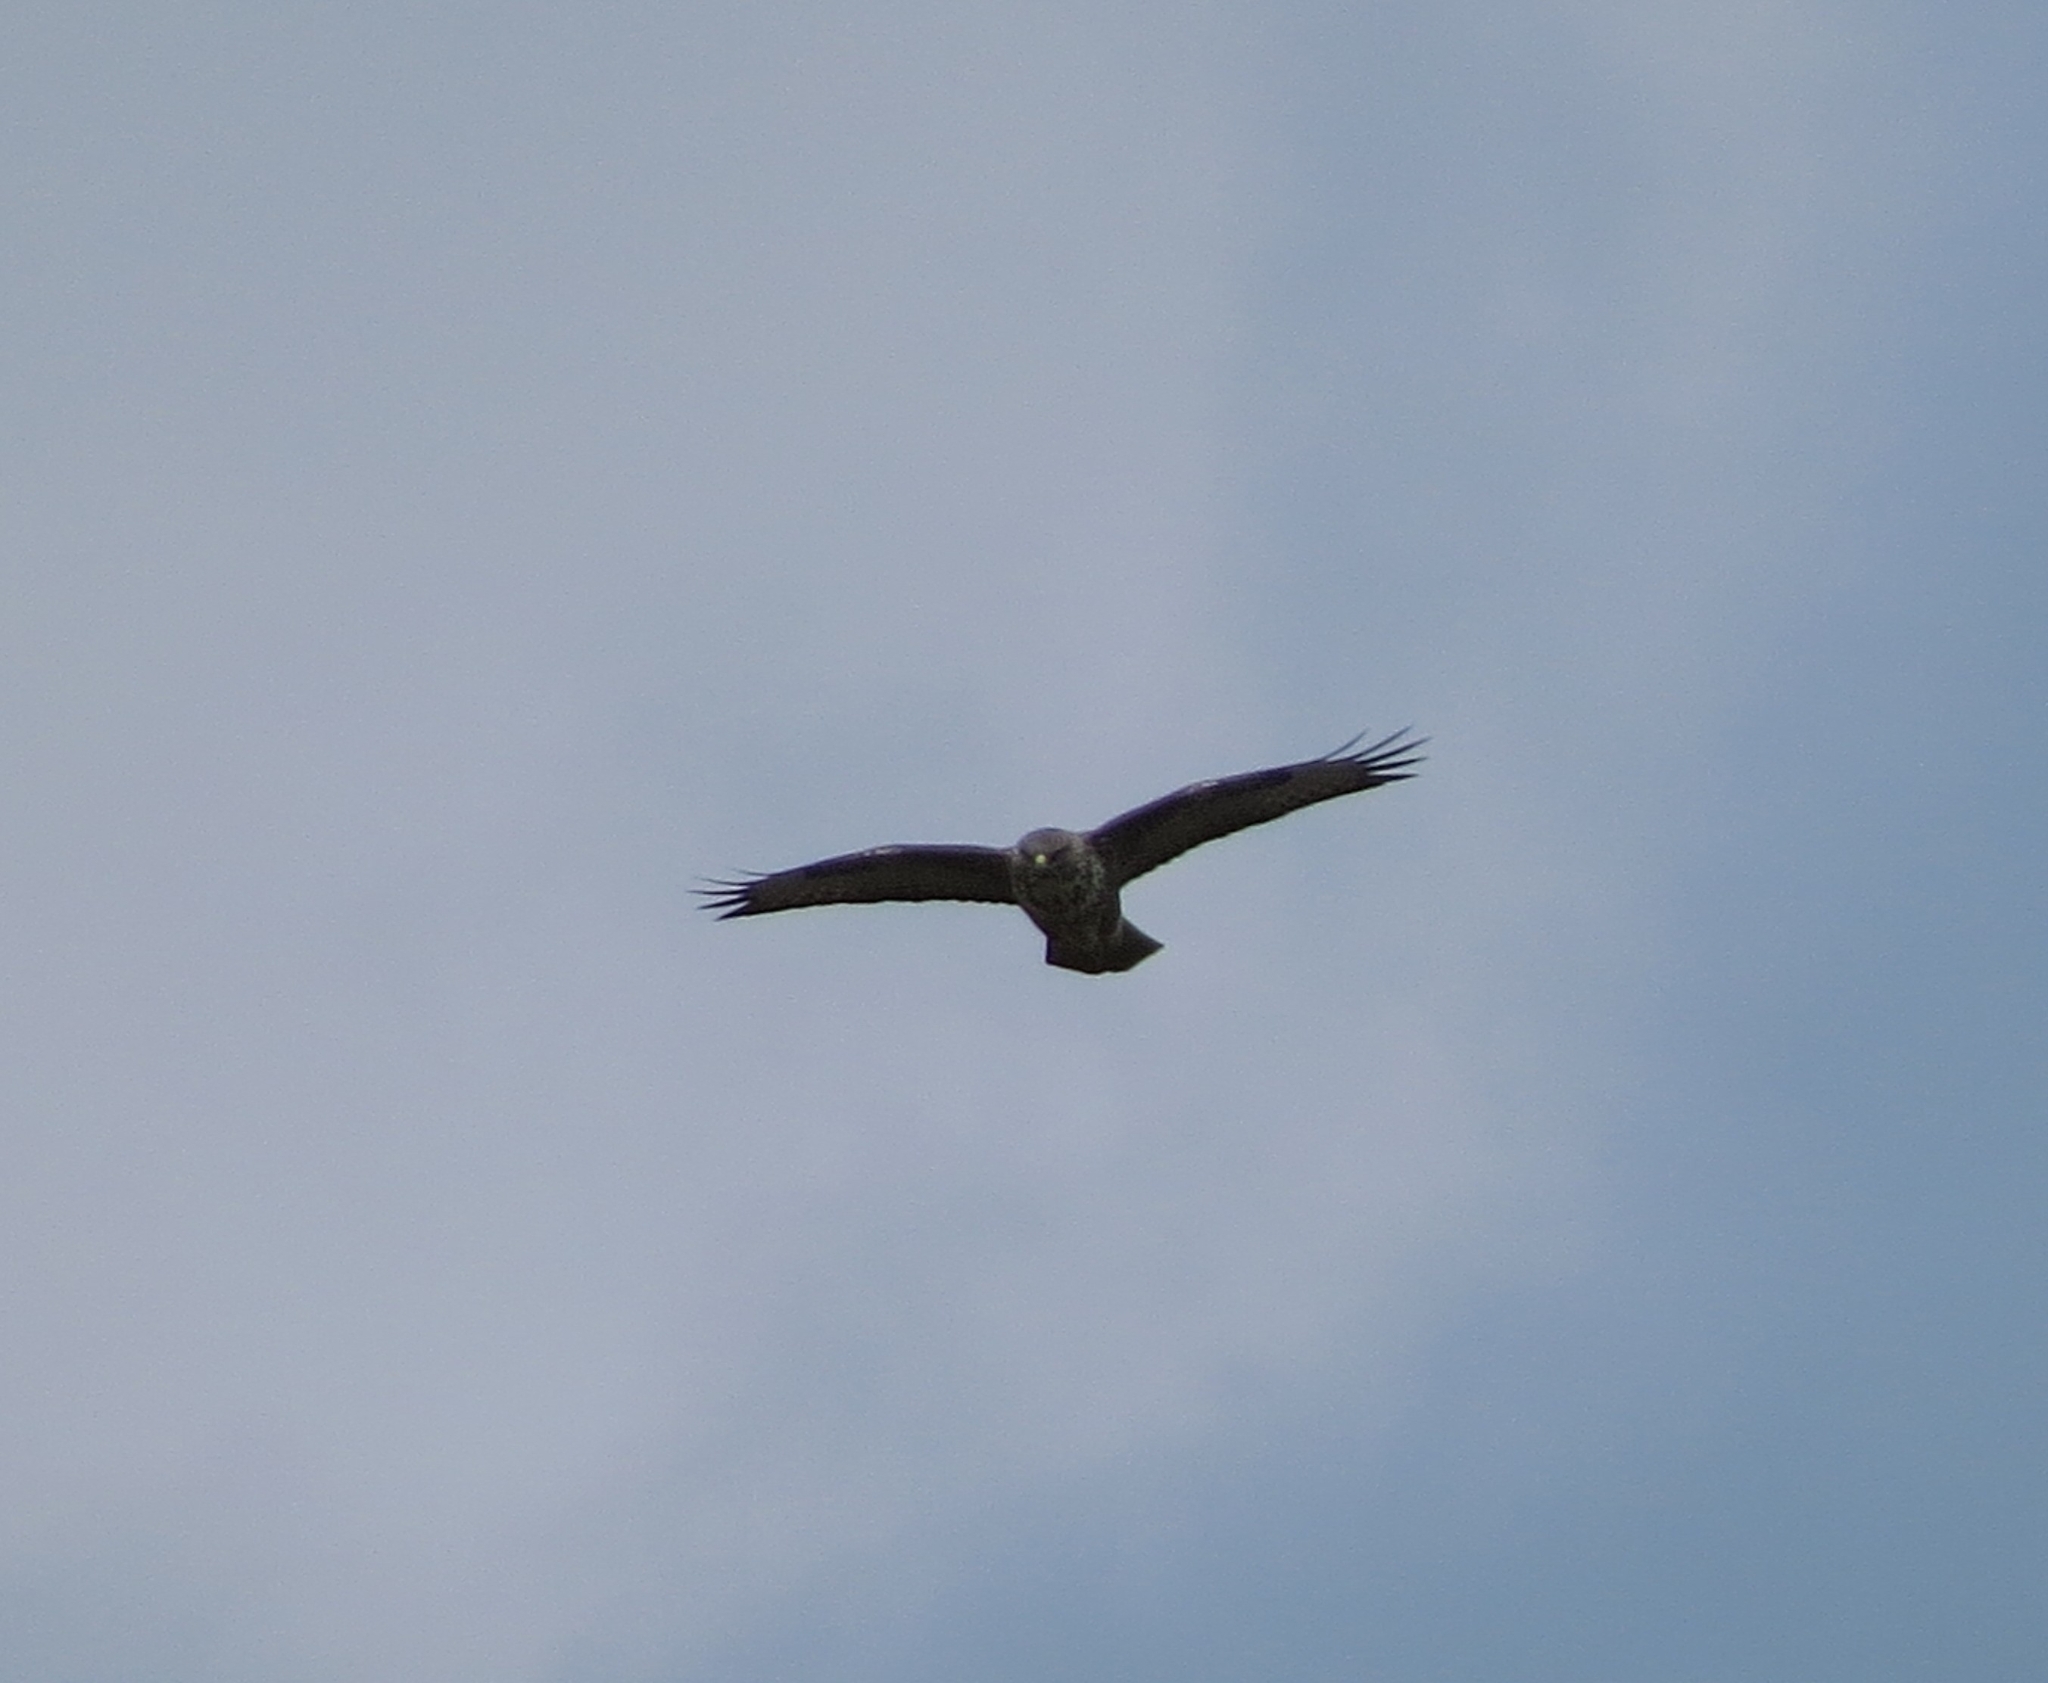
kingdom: Animalia
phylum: Chordata
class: Aves
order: Accipitriformes
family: Accipitridae
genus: Buteo
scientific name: Buteo buteo
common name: Common buzzard
